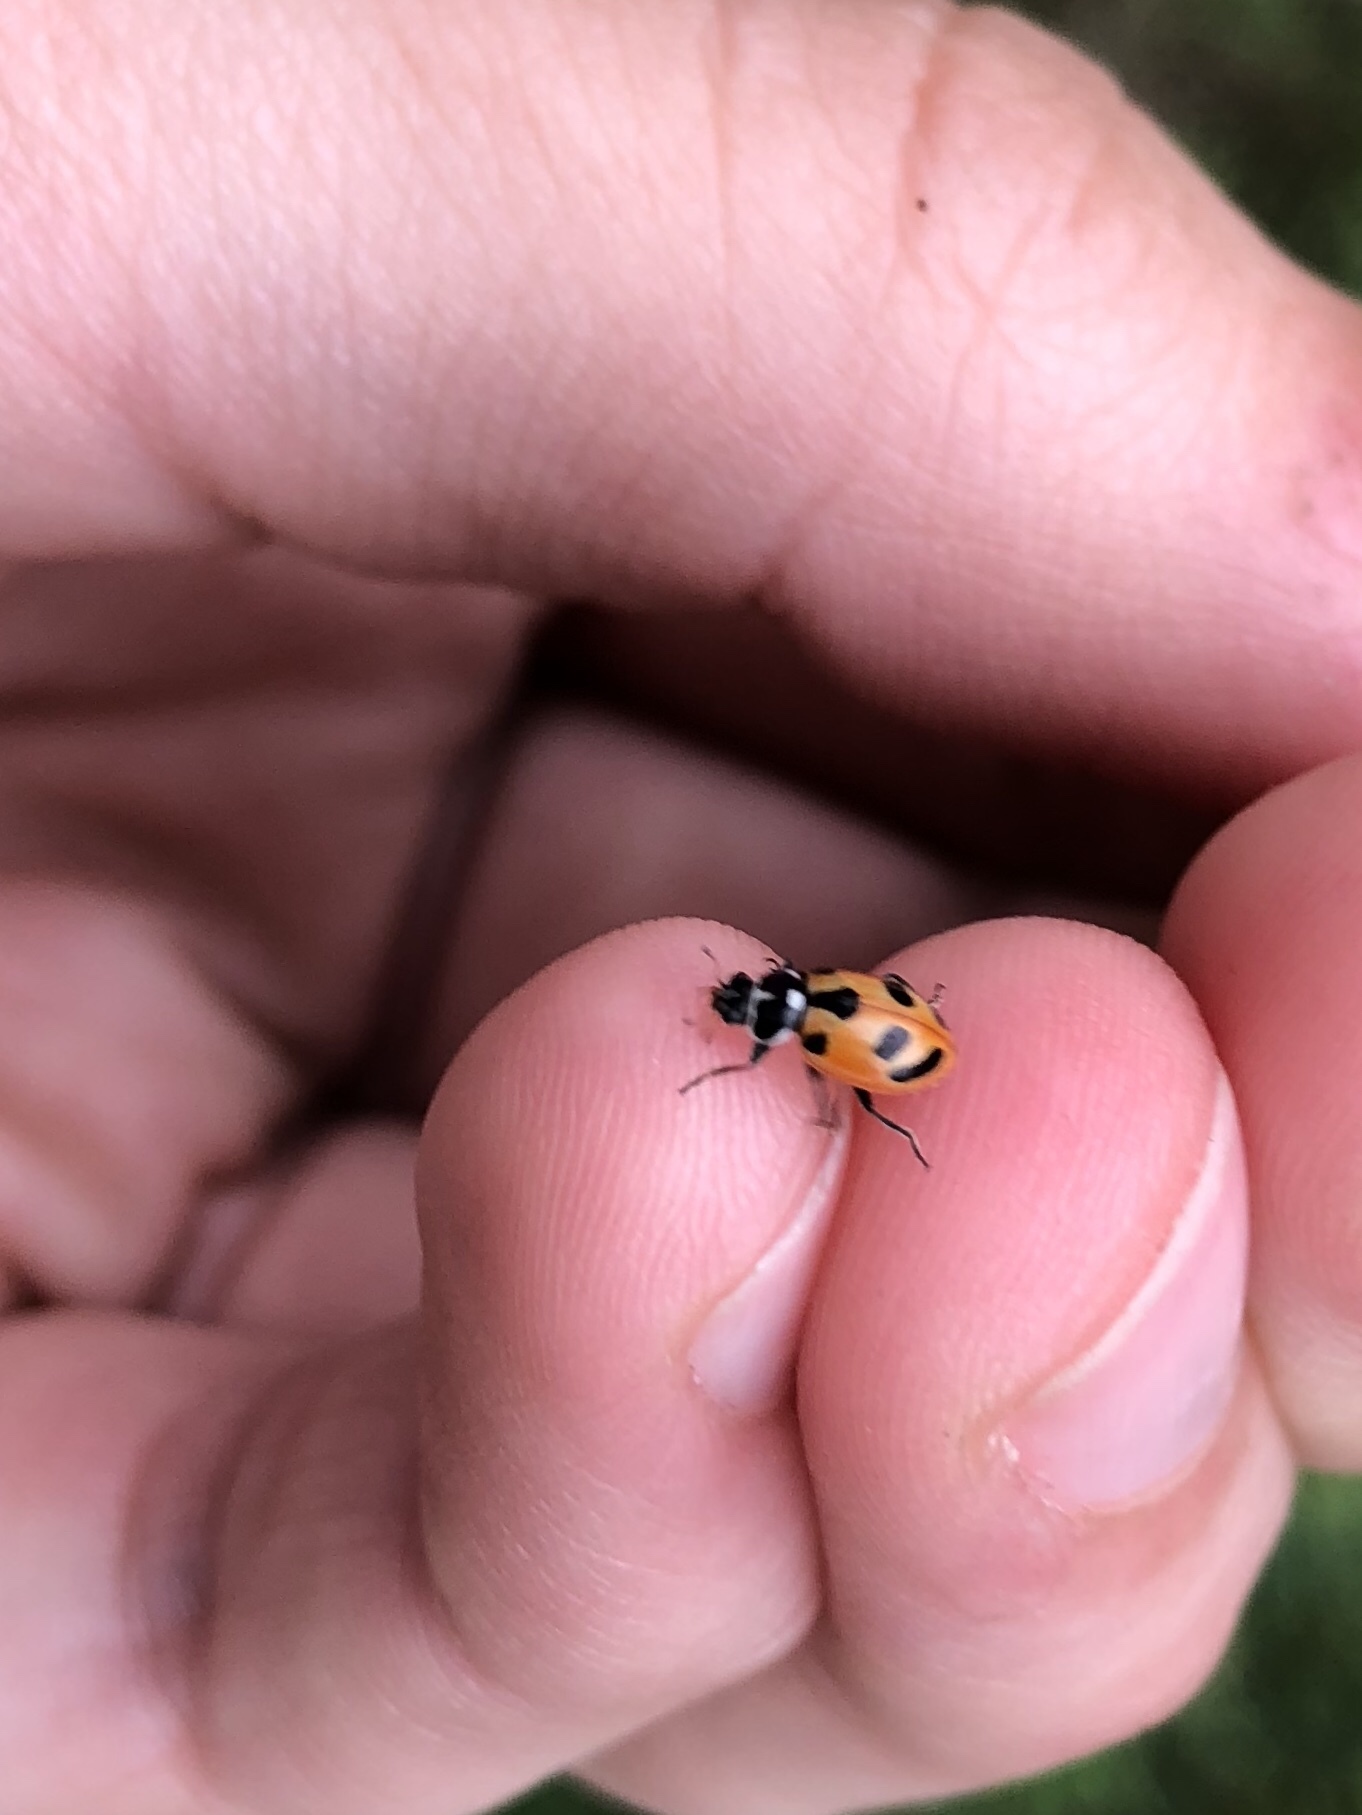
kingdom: Animalia
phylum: Arthropoda
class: Insecta
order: Coleoptera
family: Coccinellidae
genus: Hippodamia
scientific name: Hippodamia parenthesis
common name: Parenthesis lady beetle
